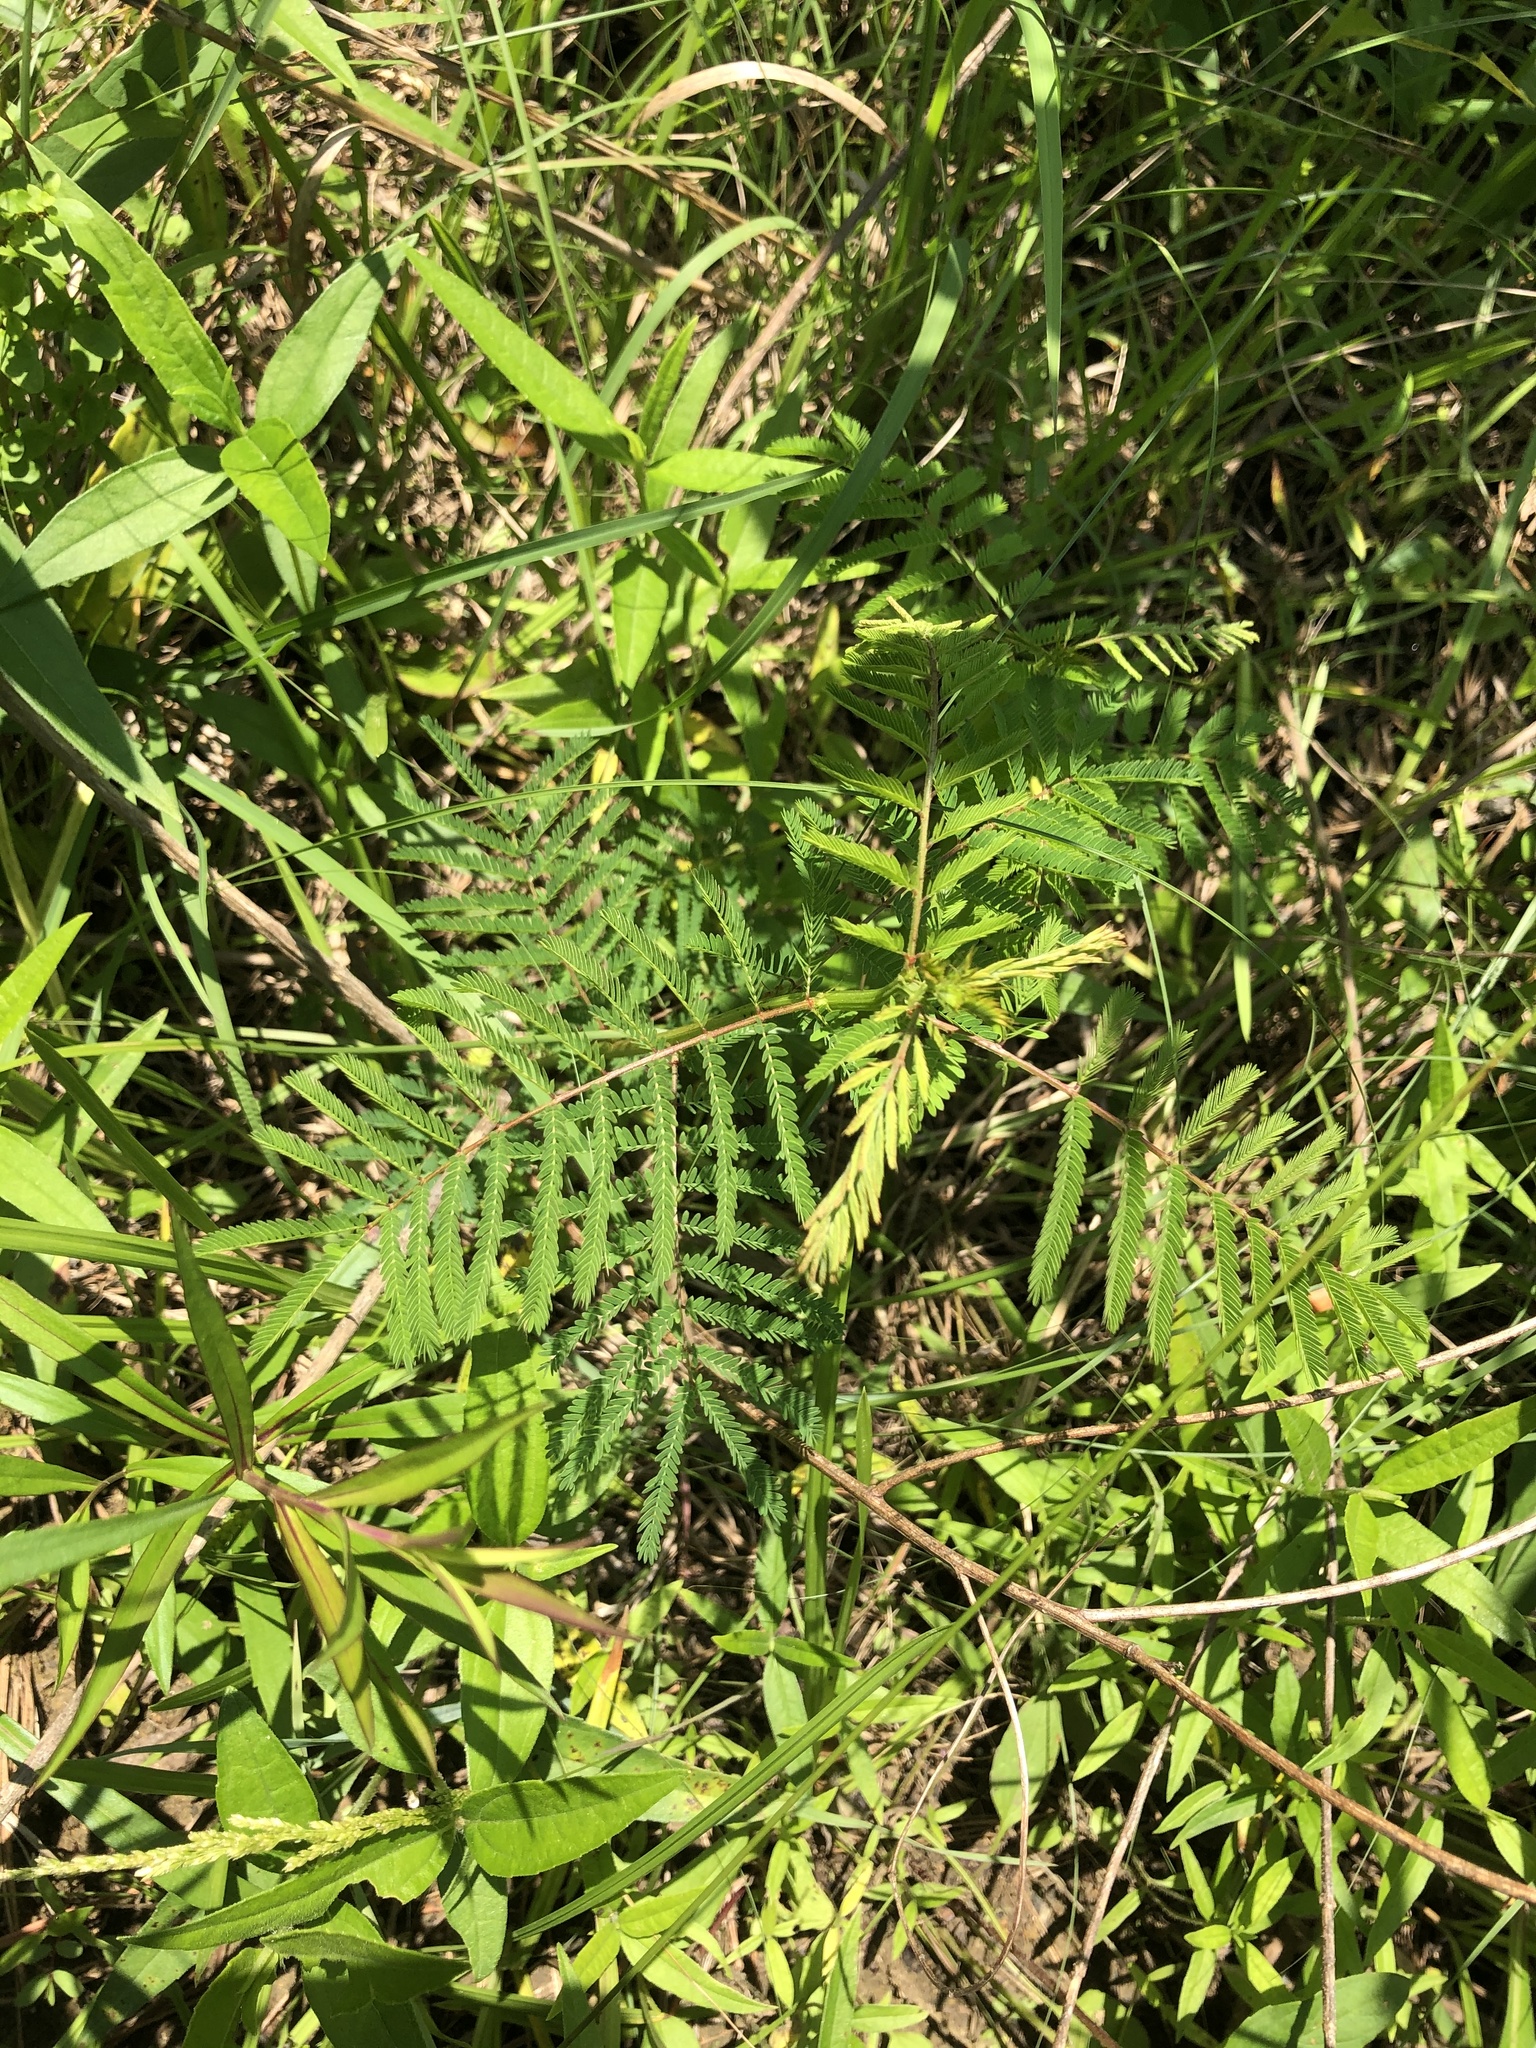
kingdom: Plantae
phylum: Tracheophyta
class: Magnoliopsida
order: Fabales
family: Fabaceae
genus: Desmanthus
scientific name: Desmanthus illinoensis
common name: Illinois bundle-flower
